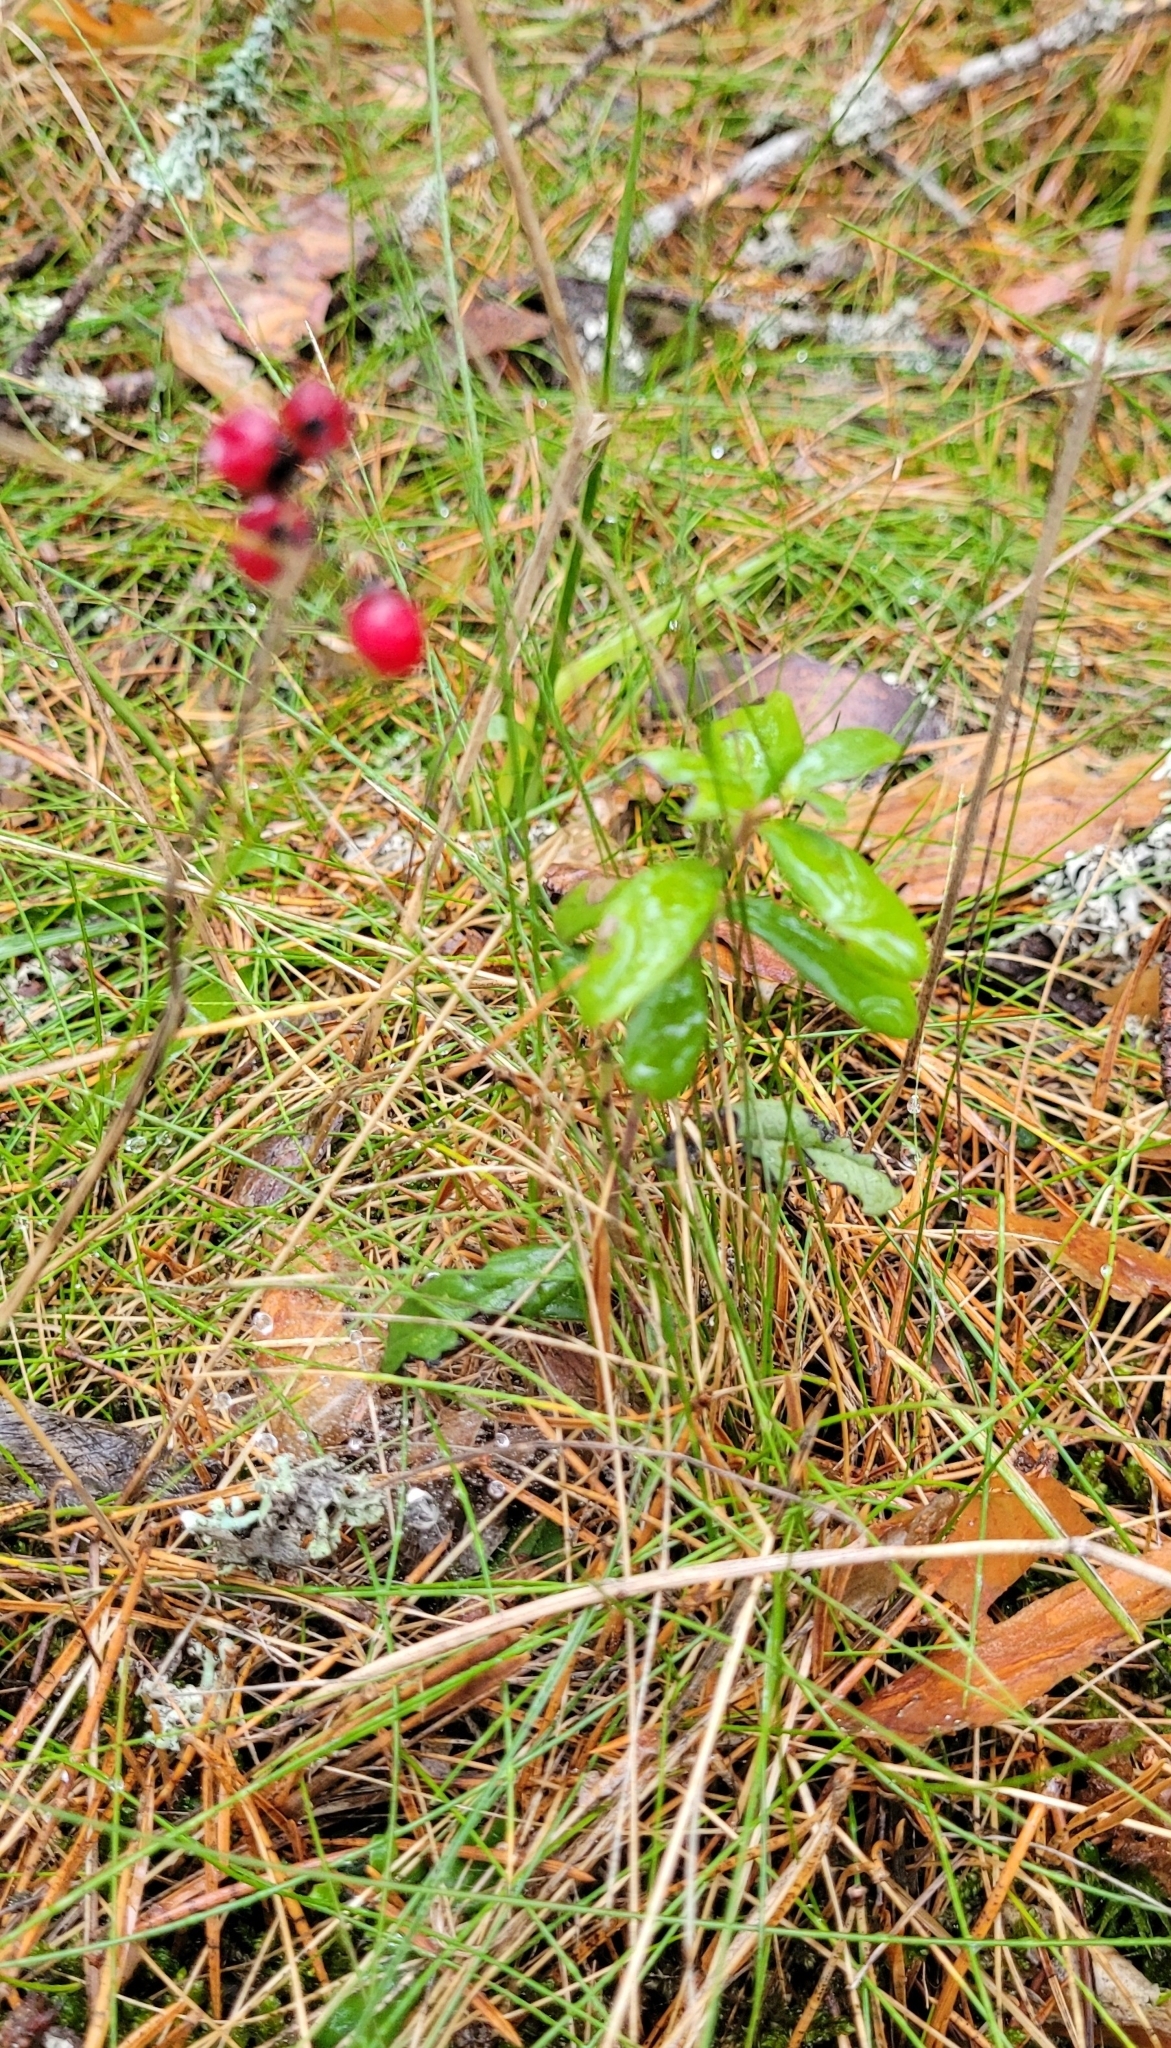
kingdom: Plantae
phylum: Tracheophyta
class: Magnoliopsida
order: Ericales
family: Ericaceae
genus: Vaccinium
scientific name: Vaccinium vitis-idaea
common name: Cowberry
